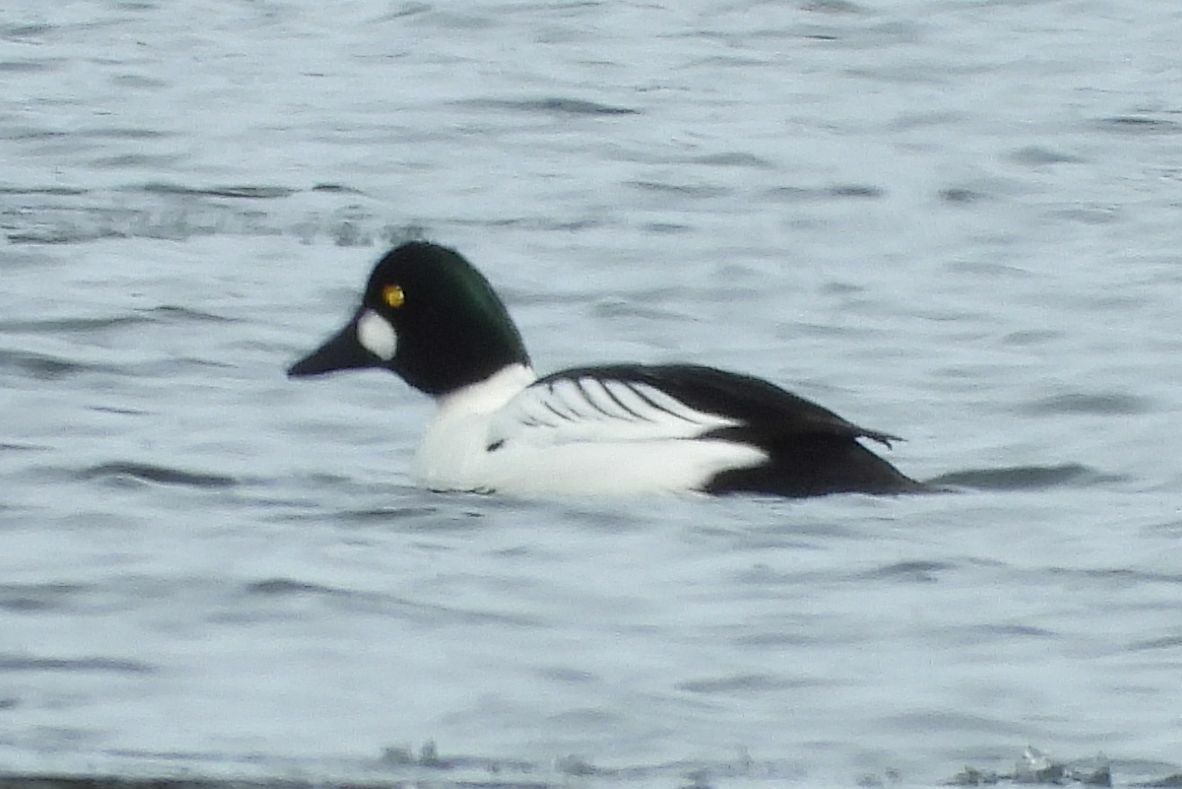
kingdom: Animalia
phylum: Chordata
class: Aves
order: Anseriformes
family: Anatidae
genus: Bucephala
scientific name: Bucephala clangula
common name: Common goldeneye
